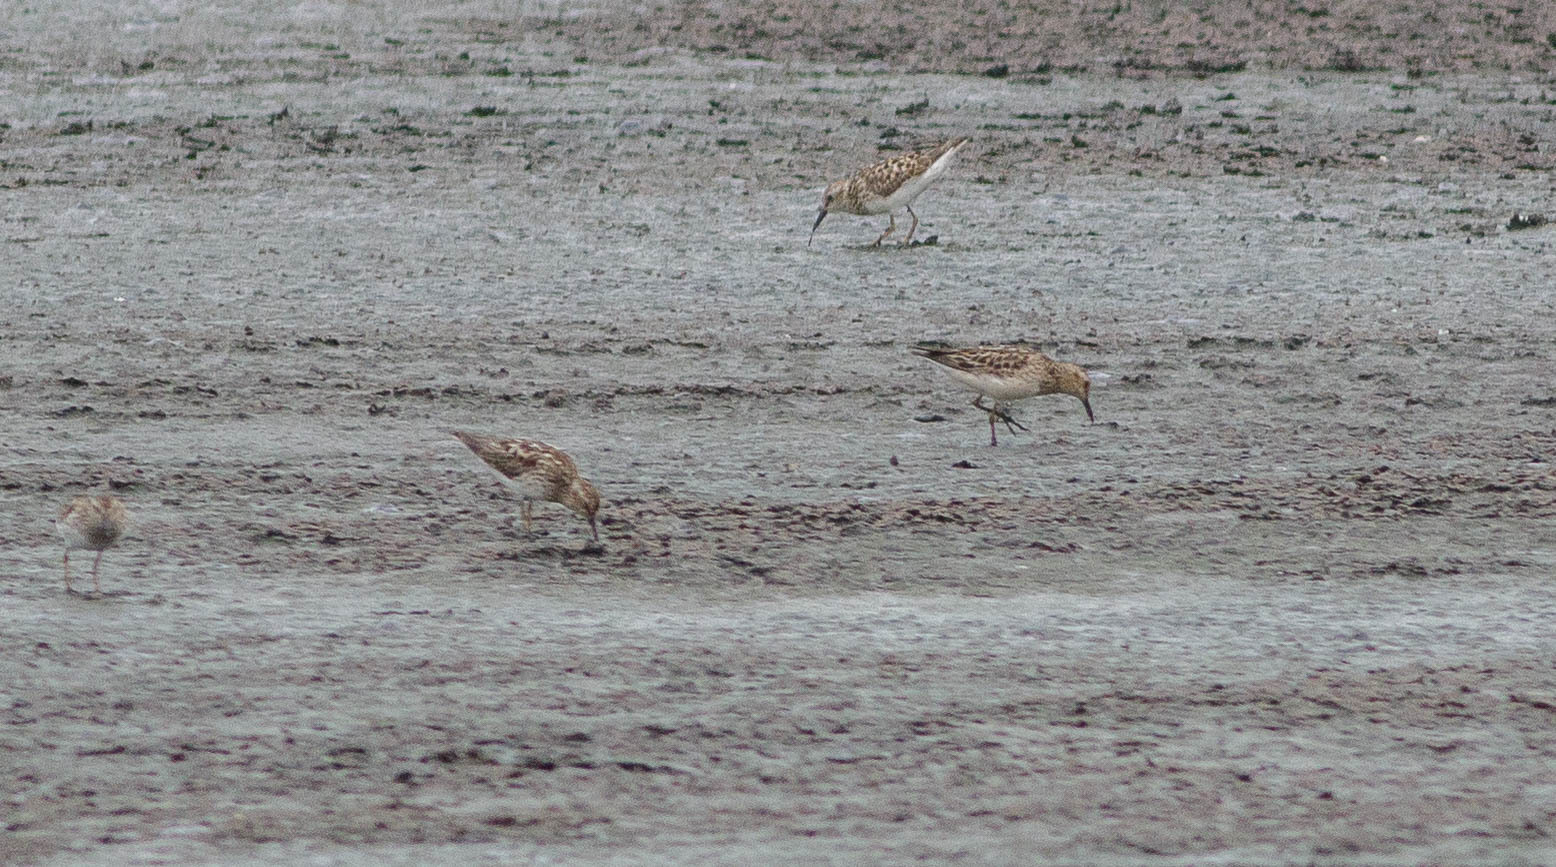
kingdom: Animalia
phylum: Chordata
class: Aves
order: Charadriiformes
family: Scolopacidae
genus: Calidris
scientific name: Calidris minutilla
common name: Least sandpiper
